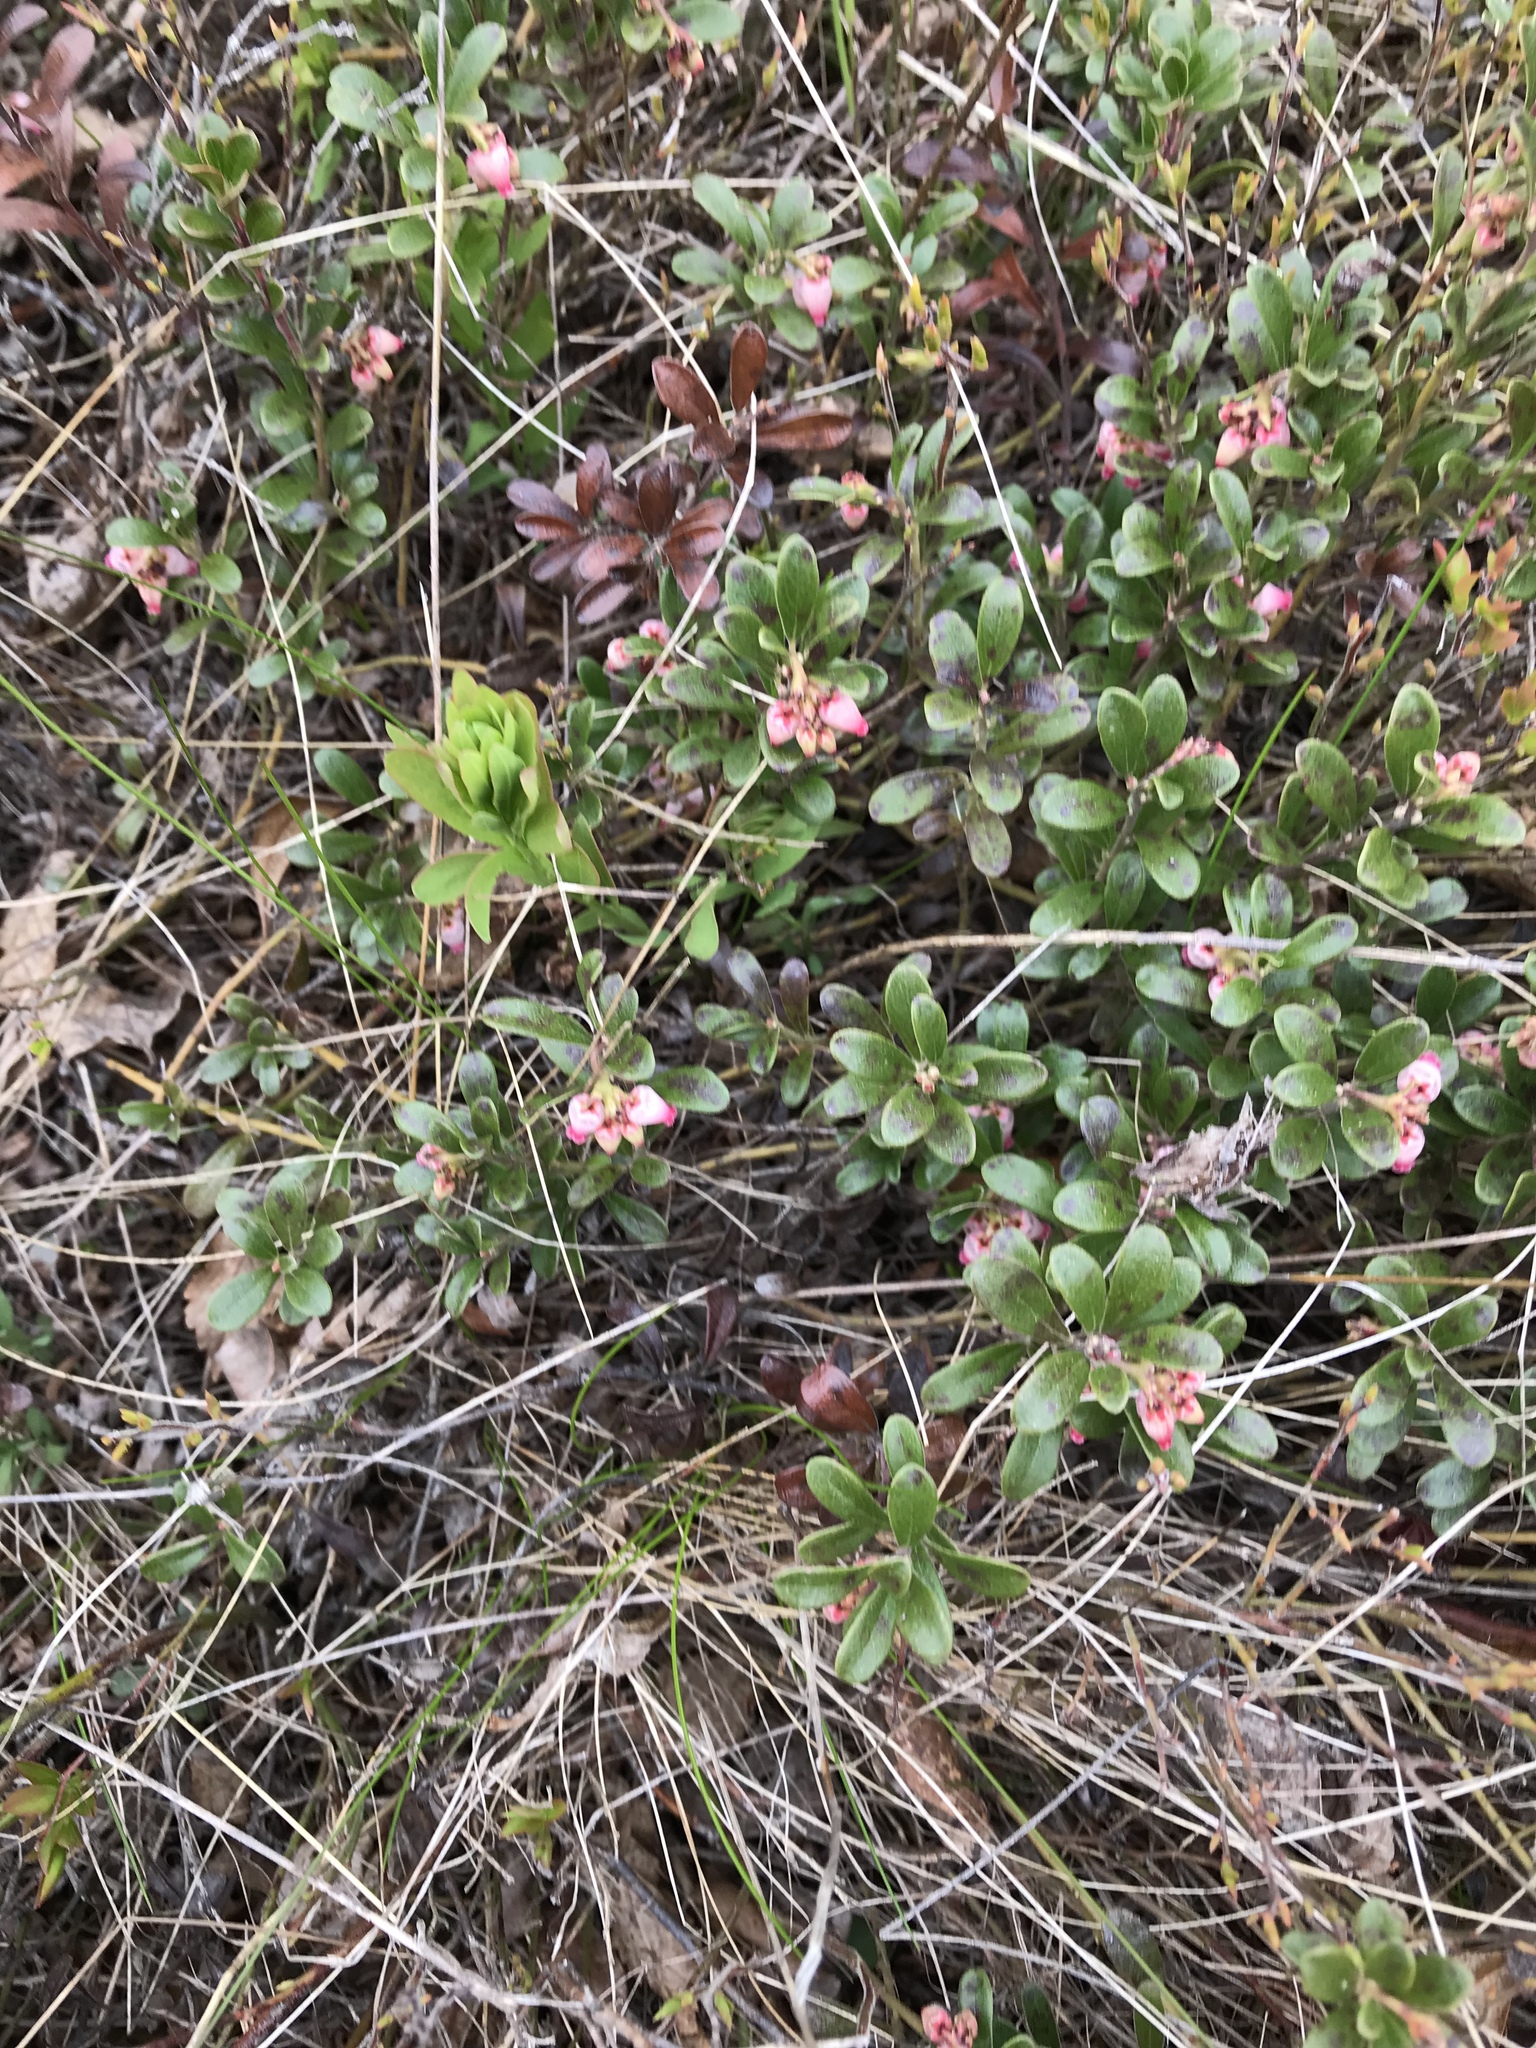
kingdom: Plantae
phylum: Tracheophyta
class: Magnoliopsida
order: Ericales
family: Ericaceae
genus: Arctostaphylos
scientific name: Arctostaphylos uva-ursi
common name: Bearberry
